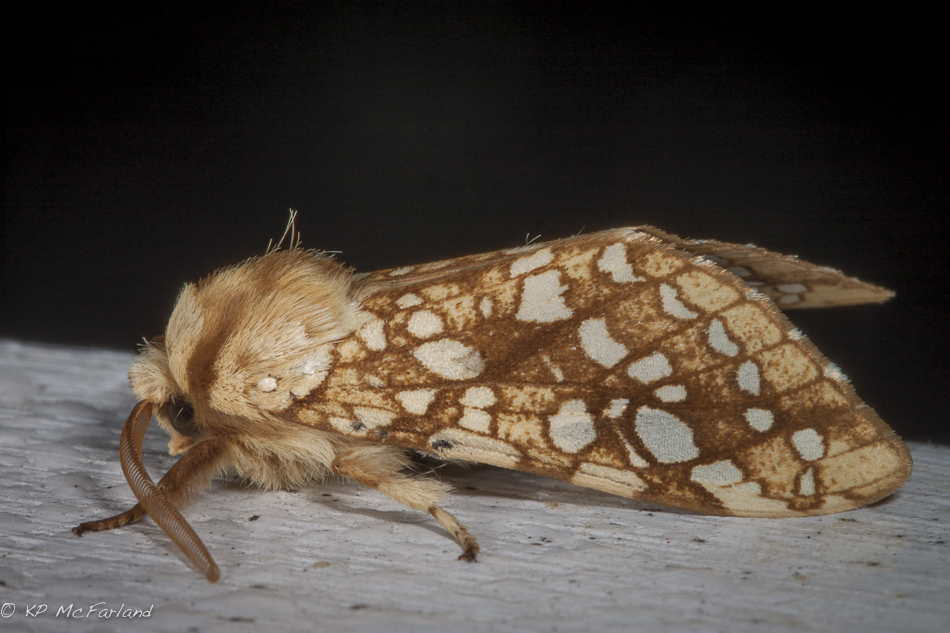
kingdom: Animalia
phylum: Arthropoda
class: Insecta
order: Lepidoptera
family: Erebidae
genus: Lophocampa
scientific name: Lophocampa caryae
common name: Hickory tussock moth
